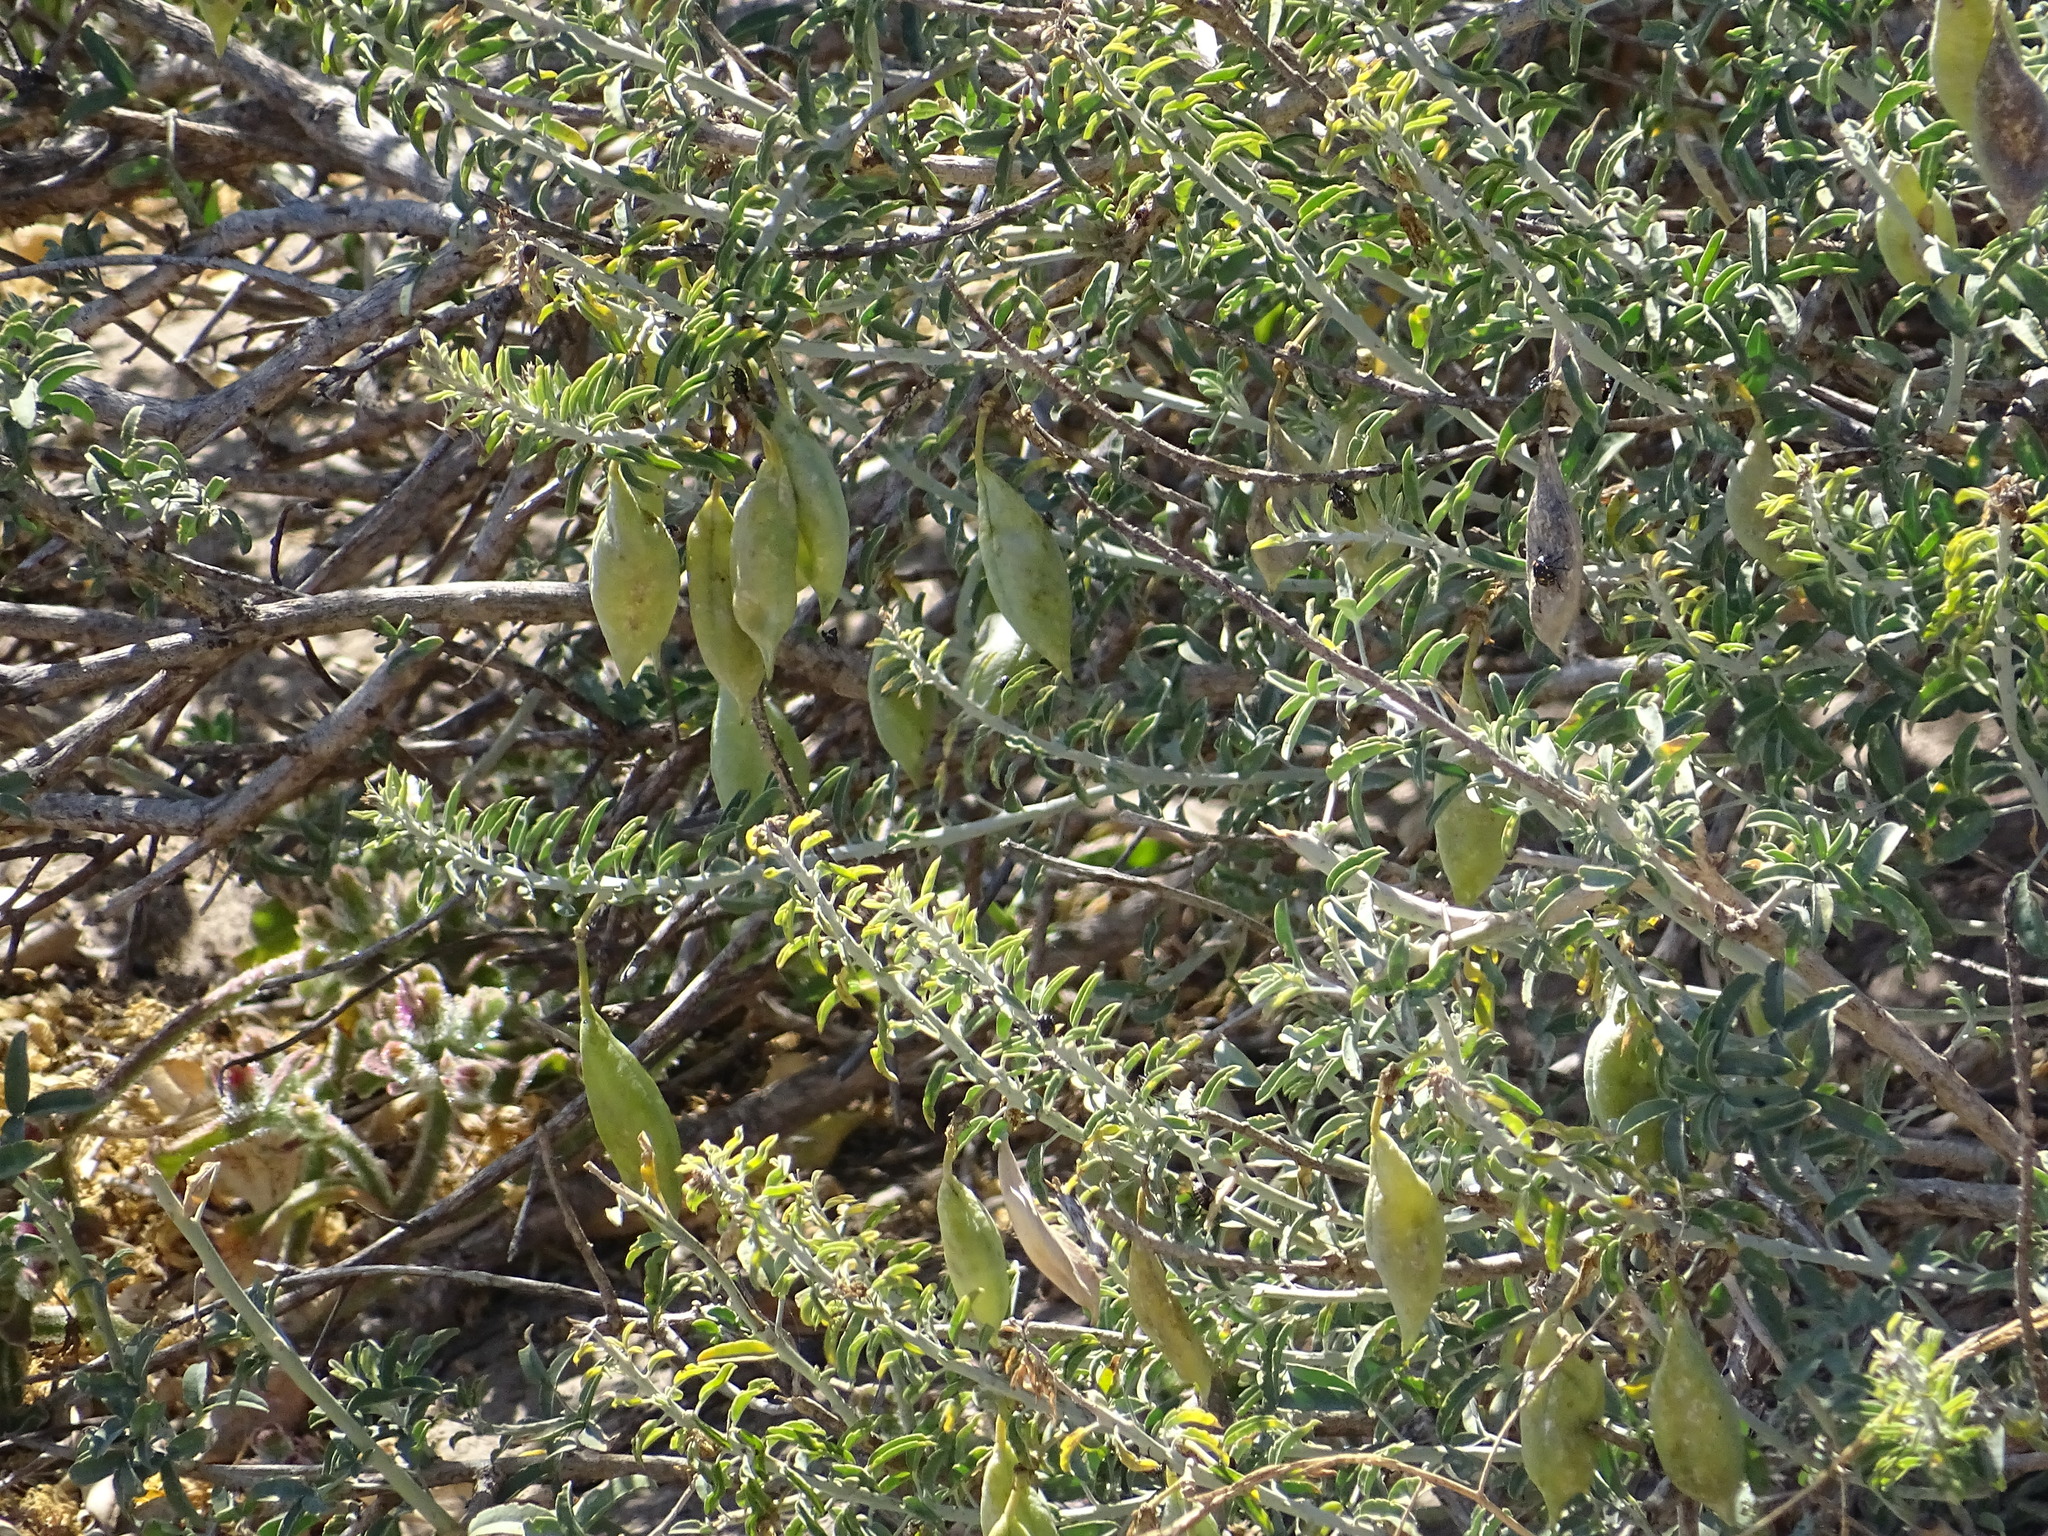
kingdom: Plantae
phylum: Tracheophyta
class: Magnoliopsida
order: Brassicales
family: Cleomaceae
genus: Cleomella
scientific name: Cleomella arborea
